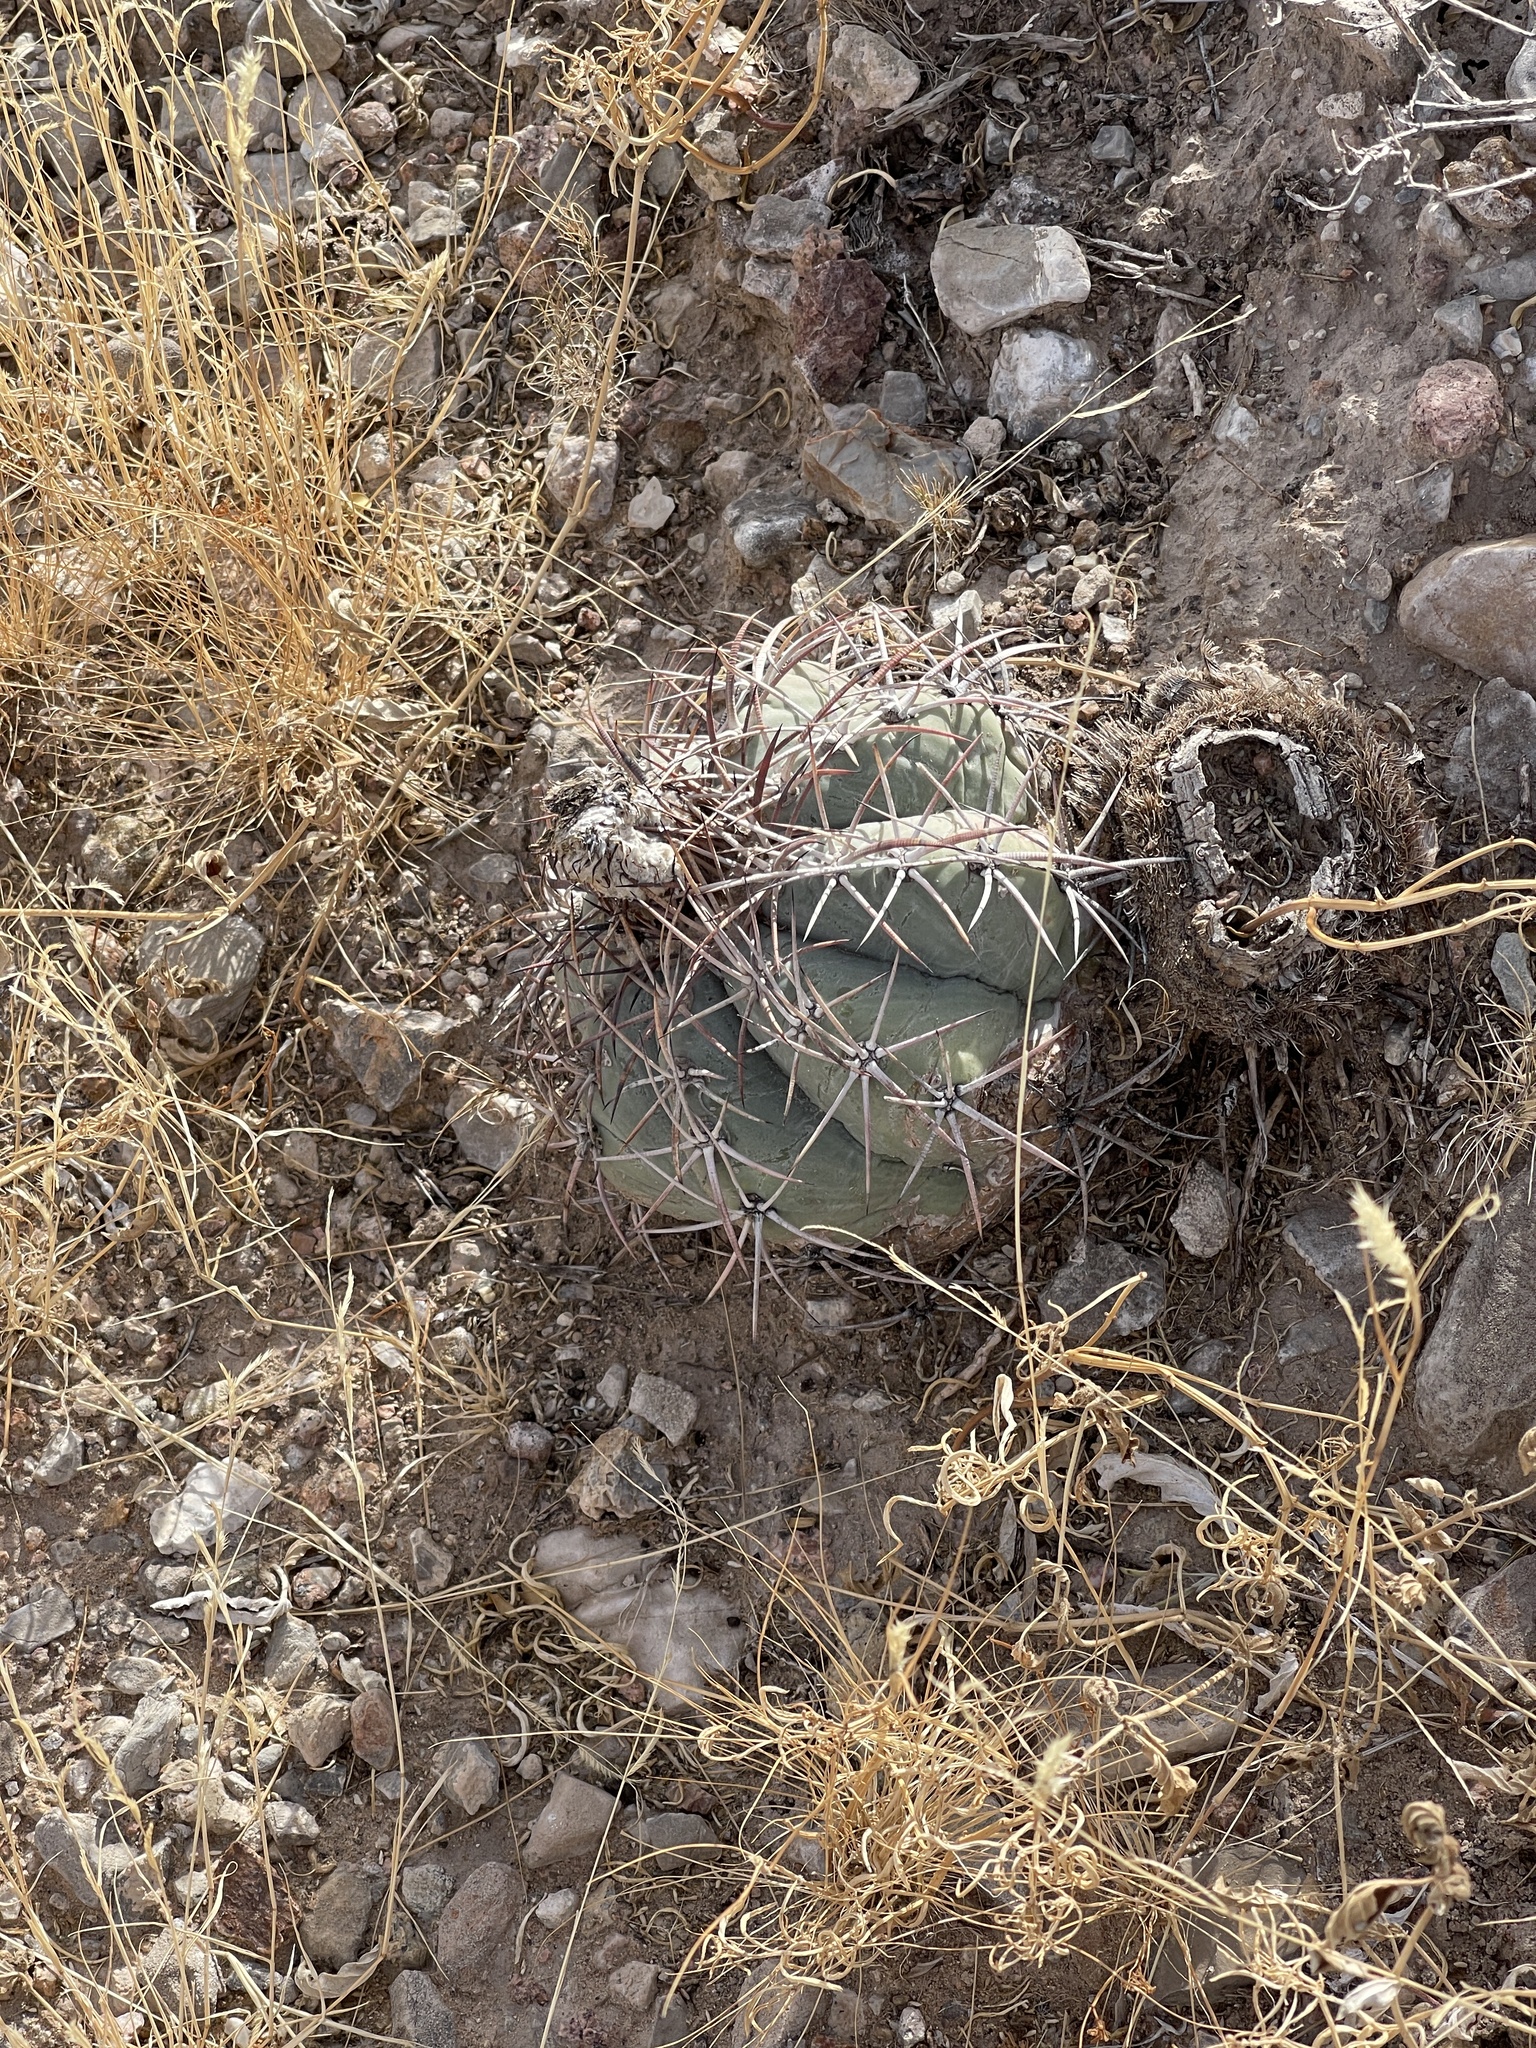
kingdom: Plantae
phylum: Tracheophyta
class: Magnoliopsida
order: Caryophyllales
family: Cactaceae
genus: Echinocactus
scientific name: Echinocactus horizonthalonius
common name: Devilshead
